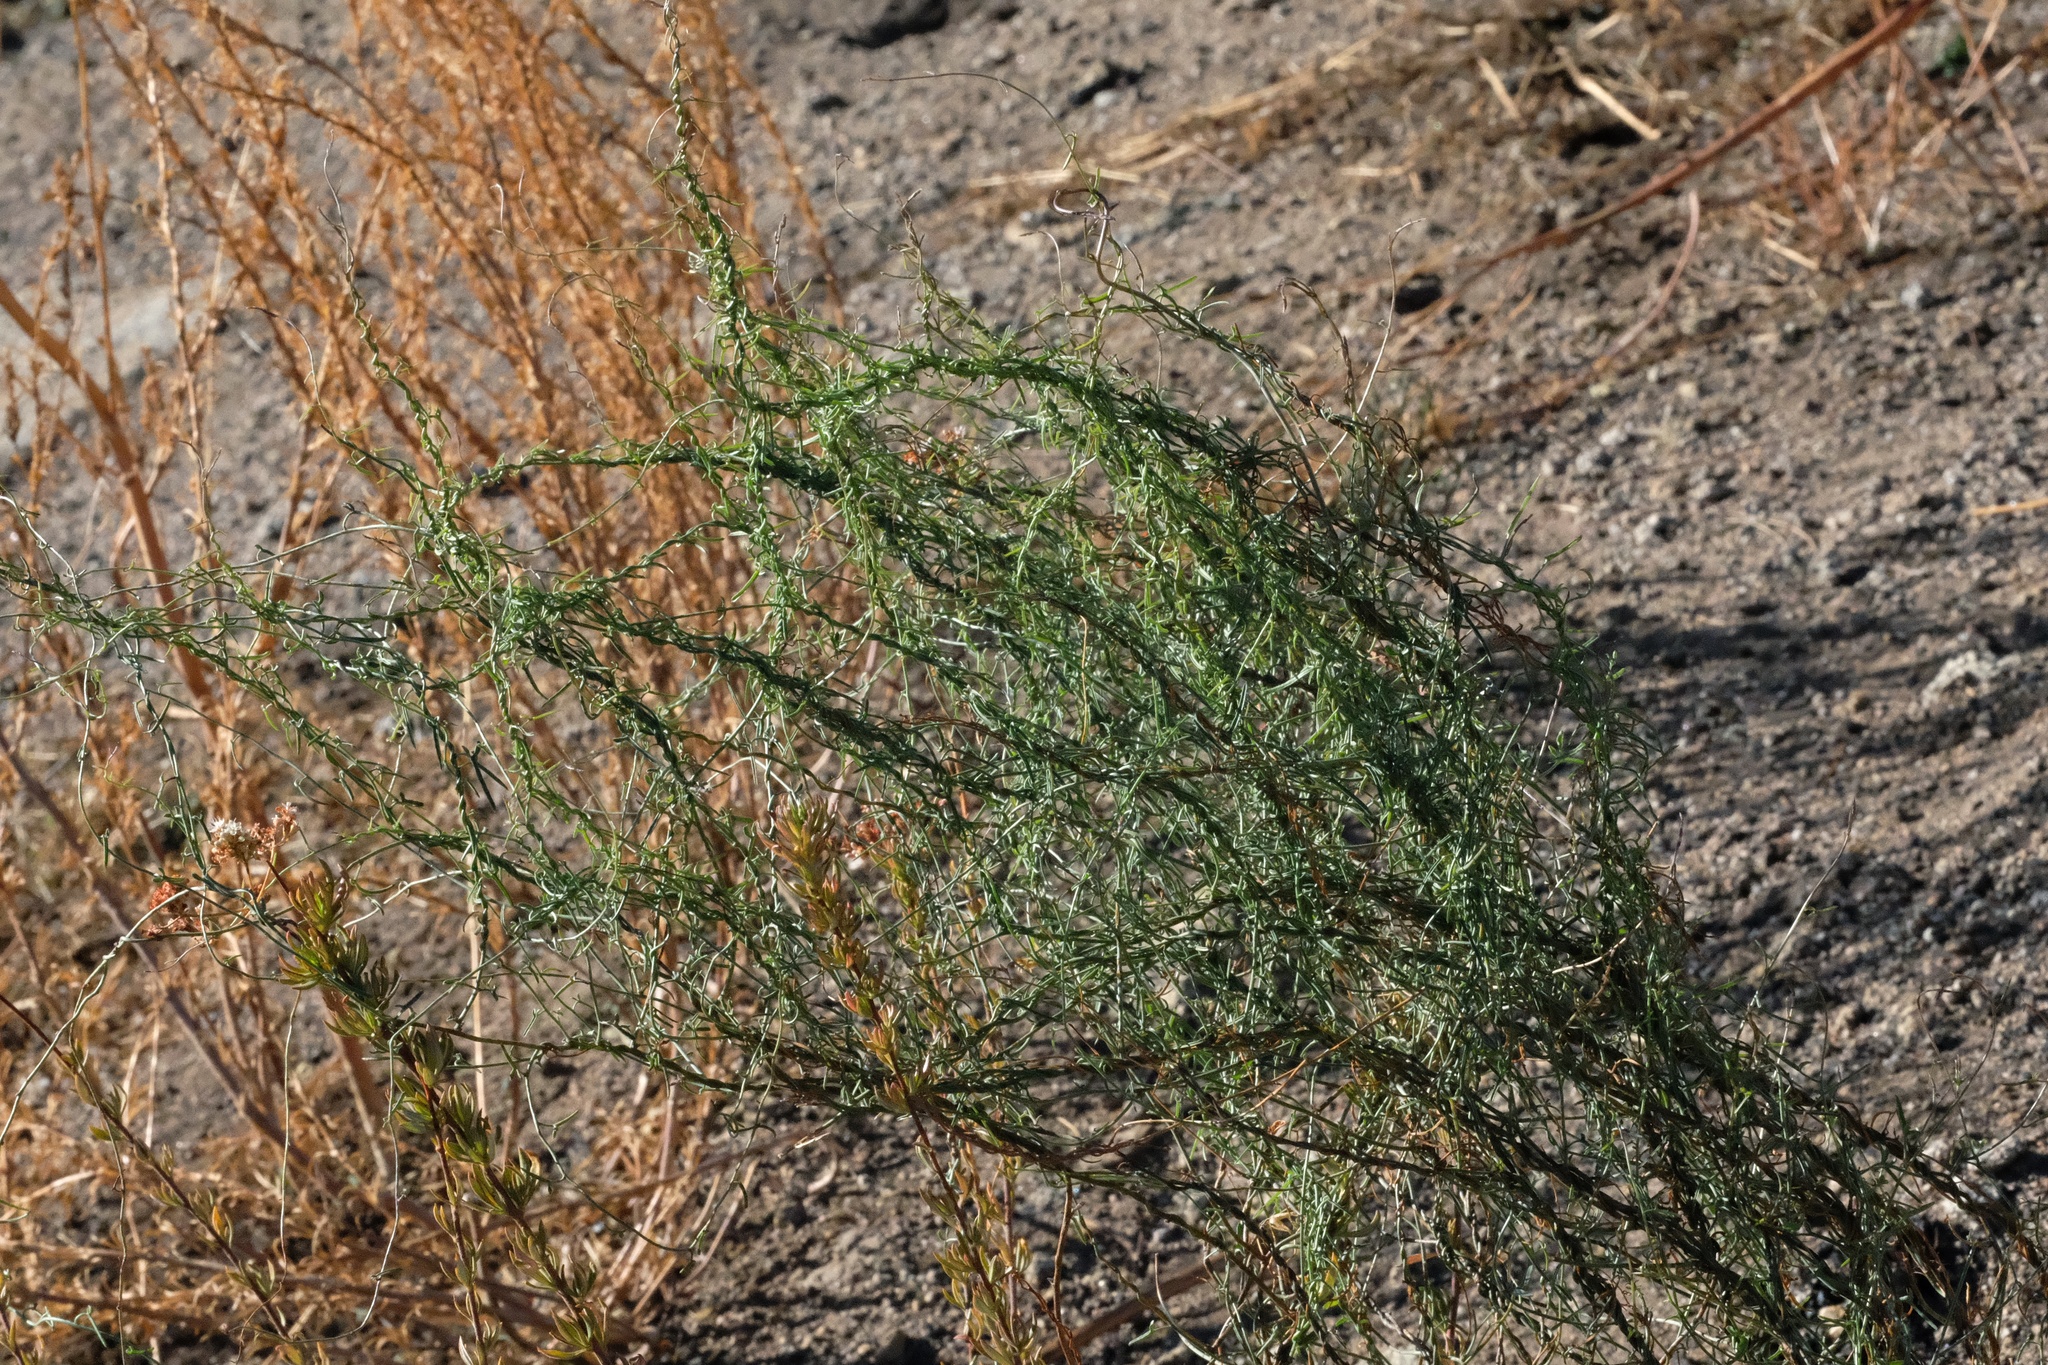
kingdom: Plantae
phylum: Tracheophyta
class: Magnoliopsida
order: Solanales
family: Convolvulaceae
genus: Calystegia
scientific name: Calystegia macrostegia
